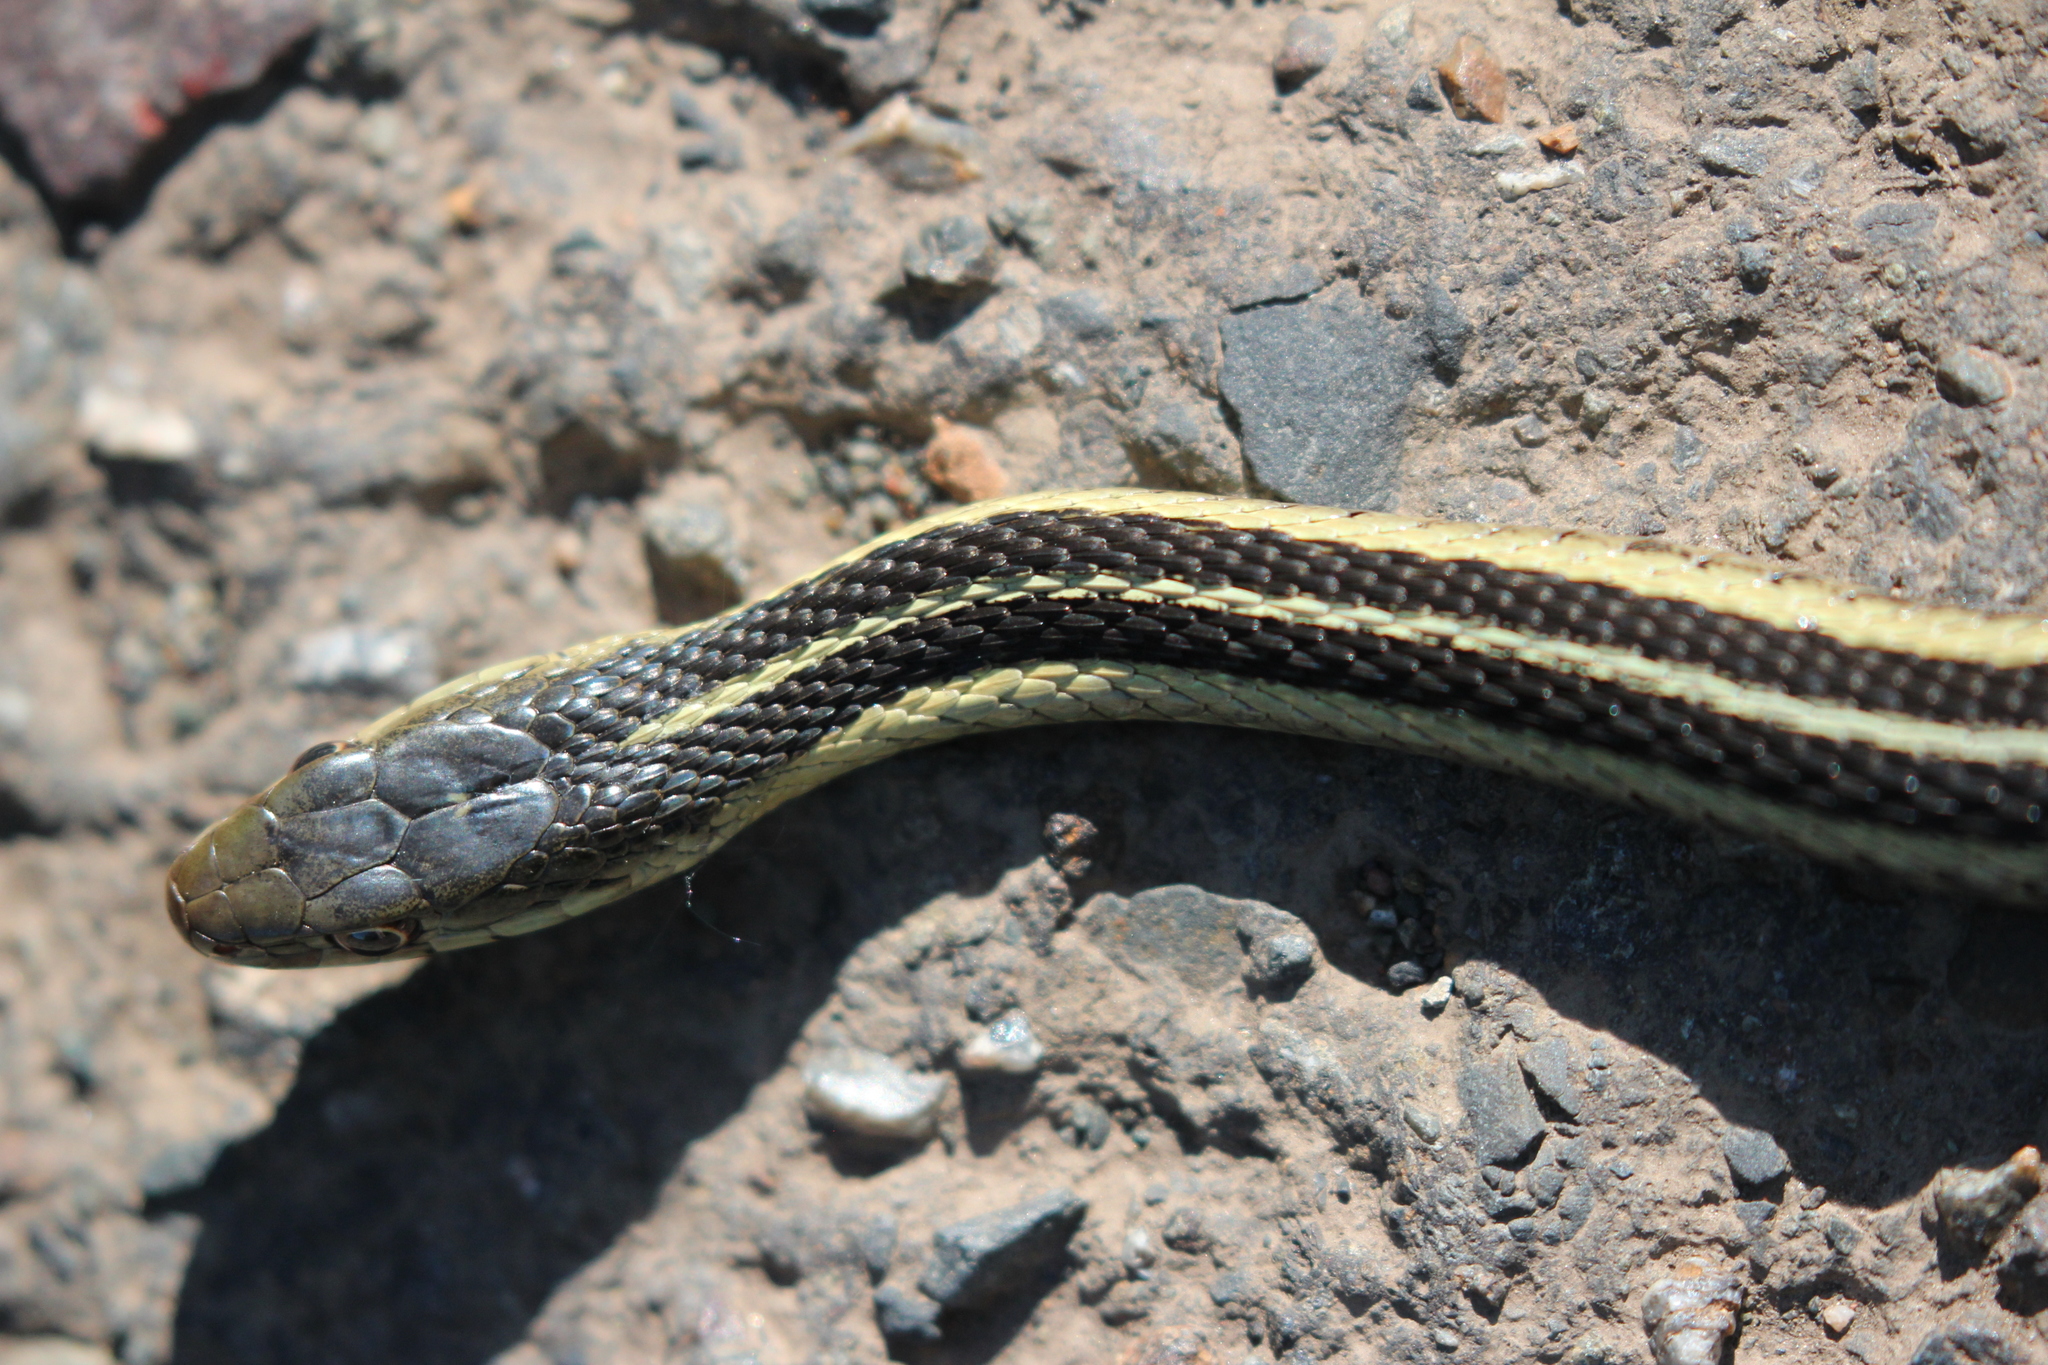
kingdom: Animalia
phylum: Chordata
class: Squamata
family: Colubridae
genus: Thamnophis
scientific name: Thamnophis sirtalis
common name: Common garter snake
